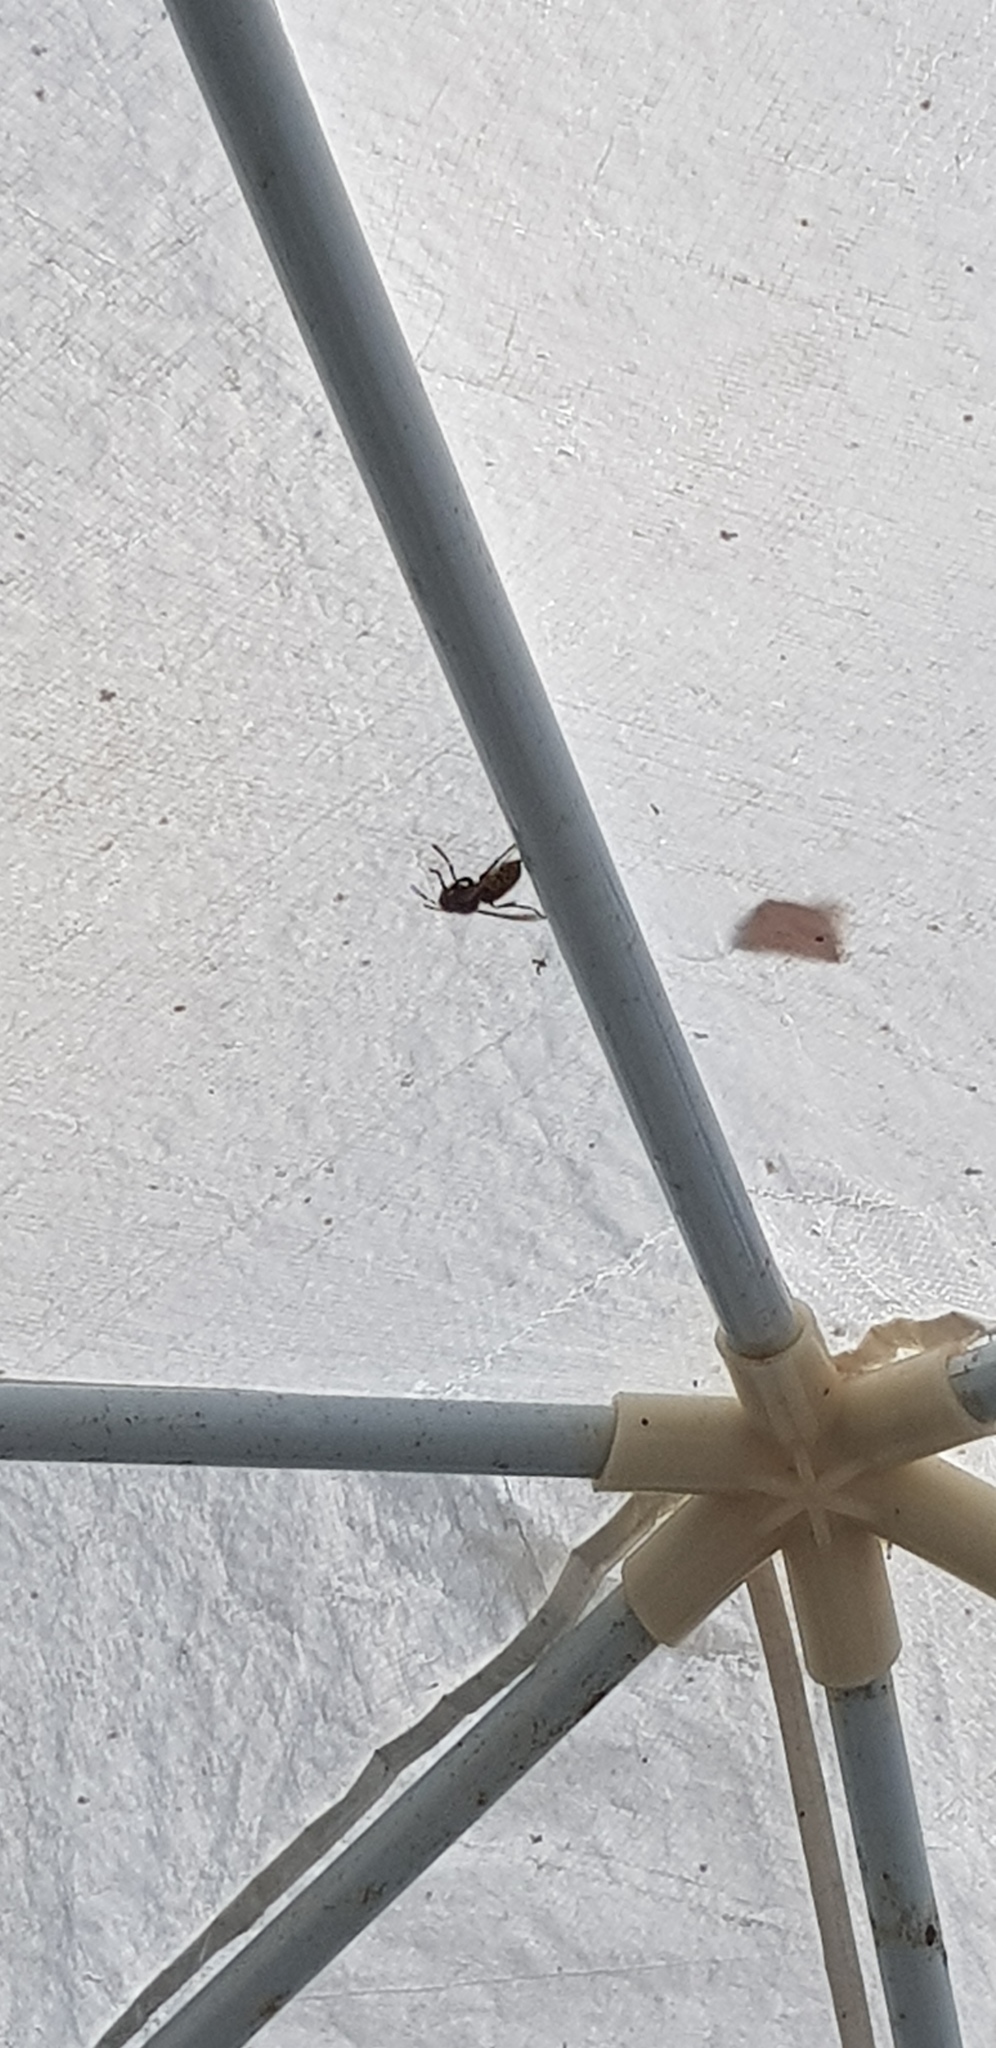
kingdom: Animalia
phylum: Arthropoda
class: Insecta
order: Hymenoptera
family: Vespidae
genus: Vespa
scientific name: Vespa crabro
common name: Hornet
